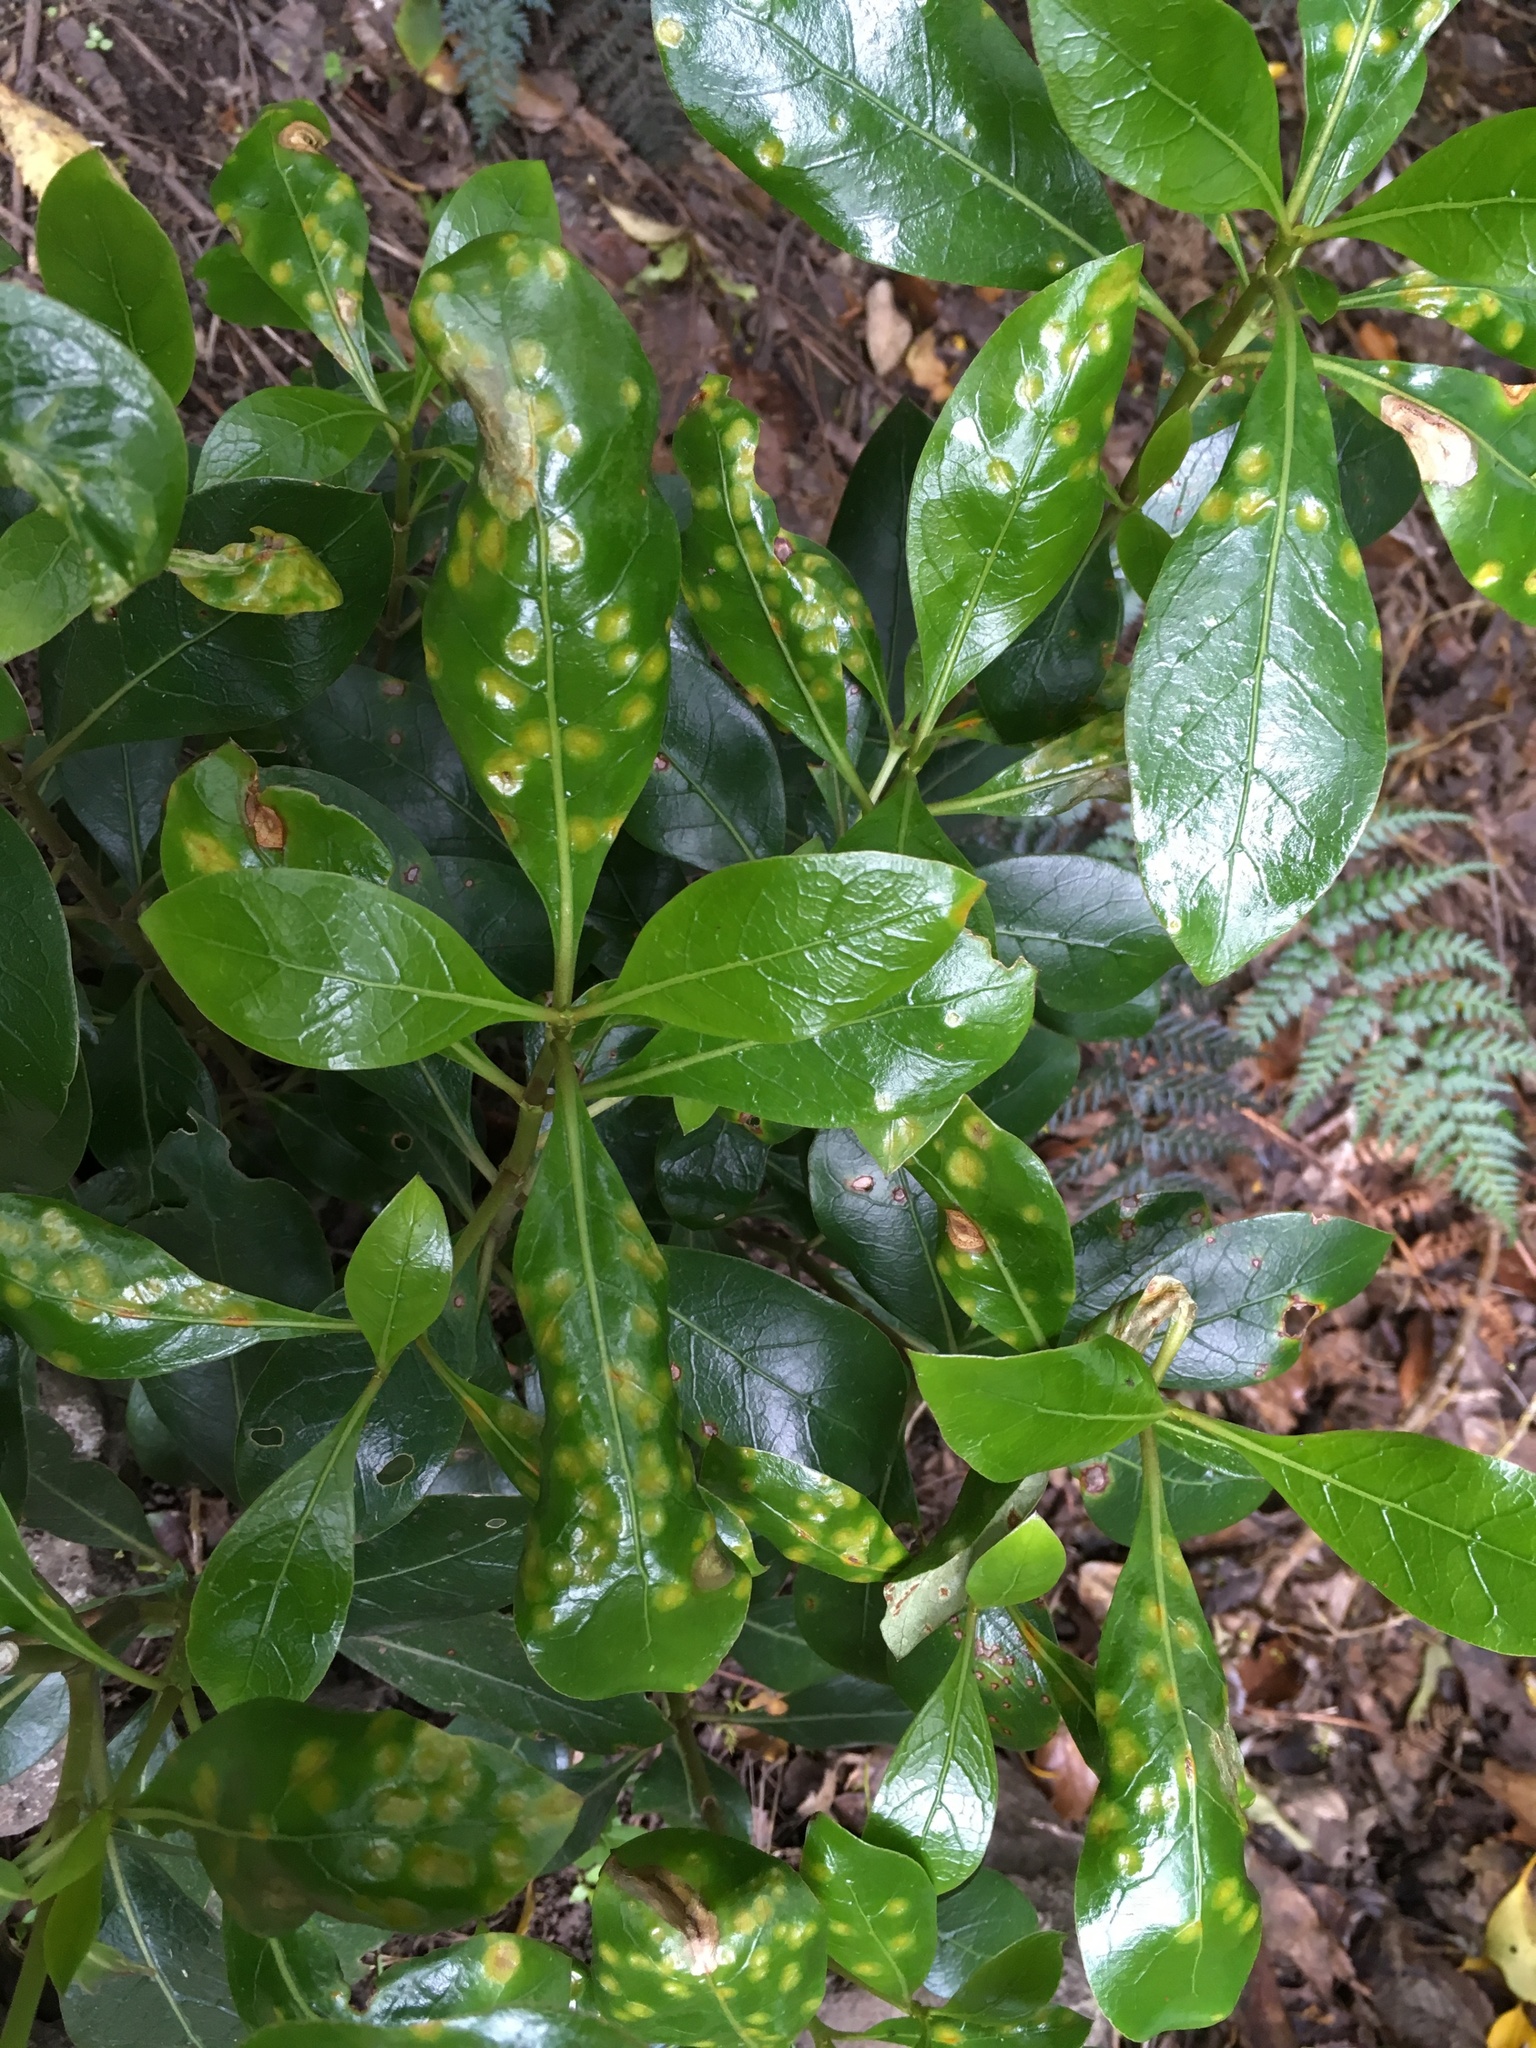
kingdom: Fungi
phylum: Basidiomycota
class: Pucciniomycetes
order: Pucciniales
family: Pucciniaceae
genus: Puccinia
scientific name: Puccinia coprosmae
